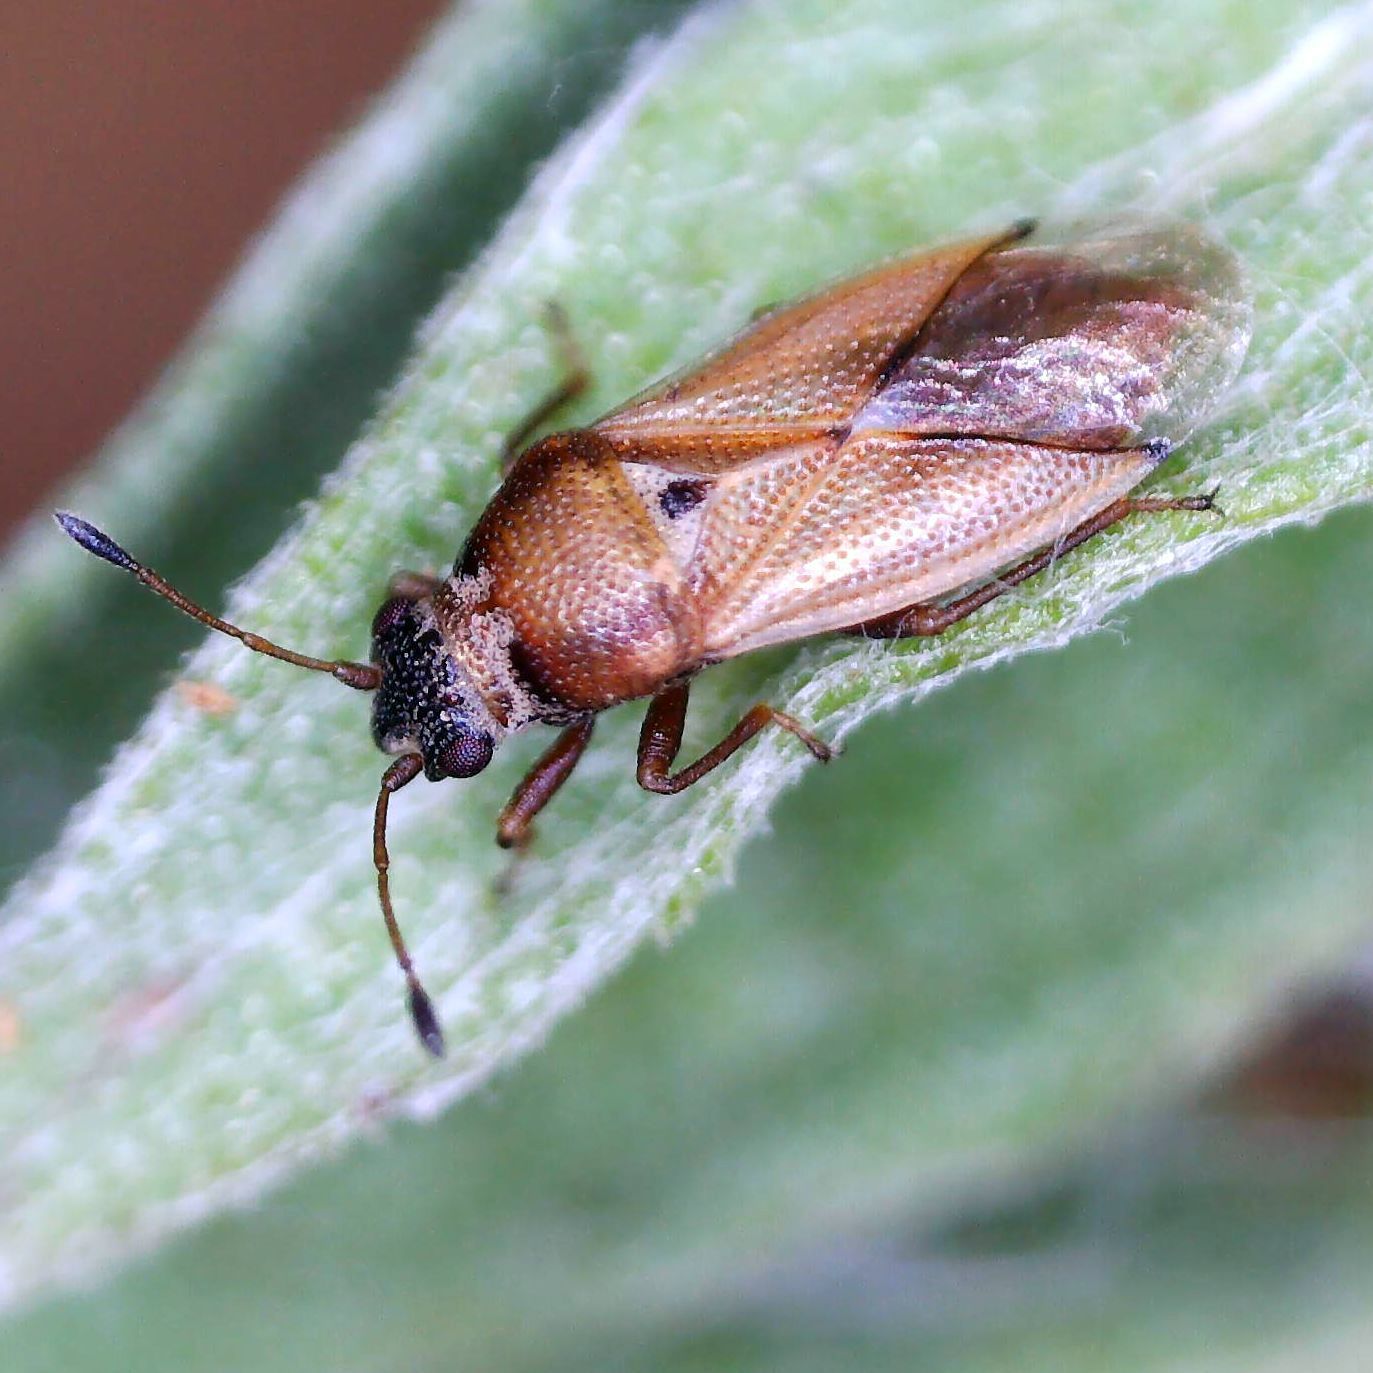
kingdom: Animalia
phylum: Arthropoda
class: Insecta
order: Hemiptera
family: Cymidae
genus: Cymus
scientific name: Cymus melanocephalus
